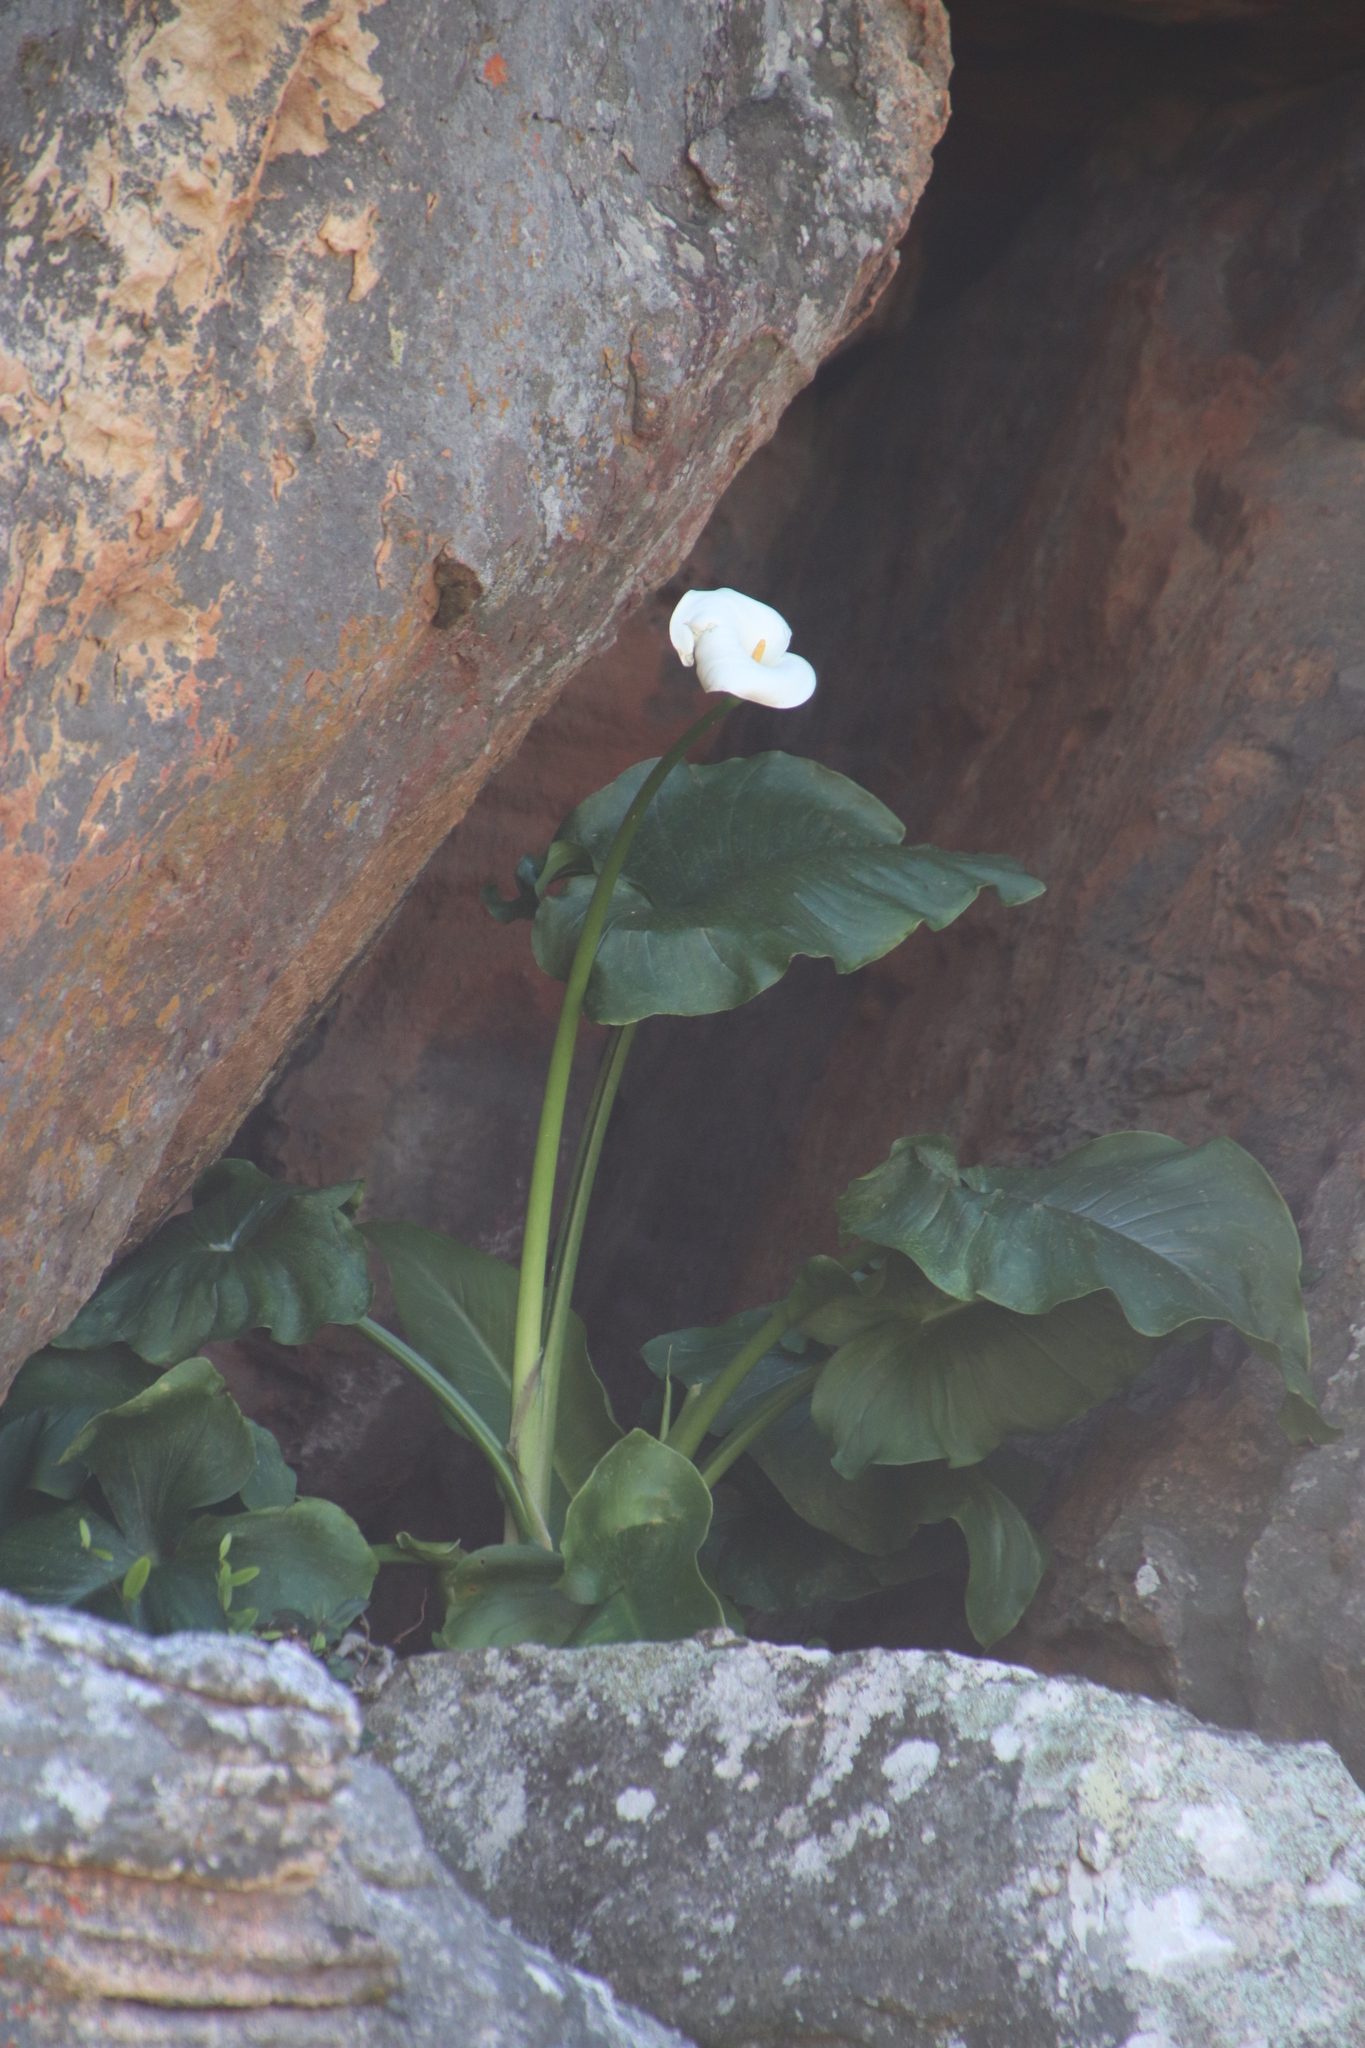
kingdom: Plantae
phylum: Tracheophyta
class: Liliopsida
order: Alismatales
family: Araceae
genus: Zantedeschia
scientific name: Zantedeschia aethiopica
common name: Altar-lily
